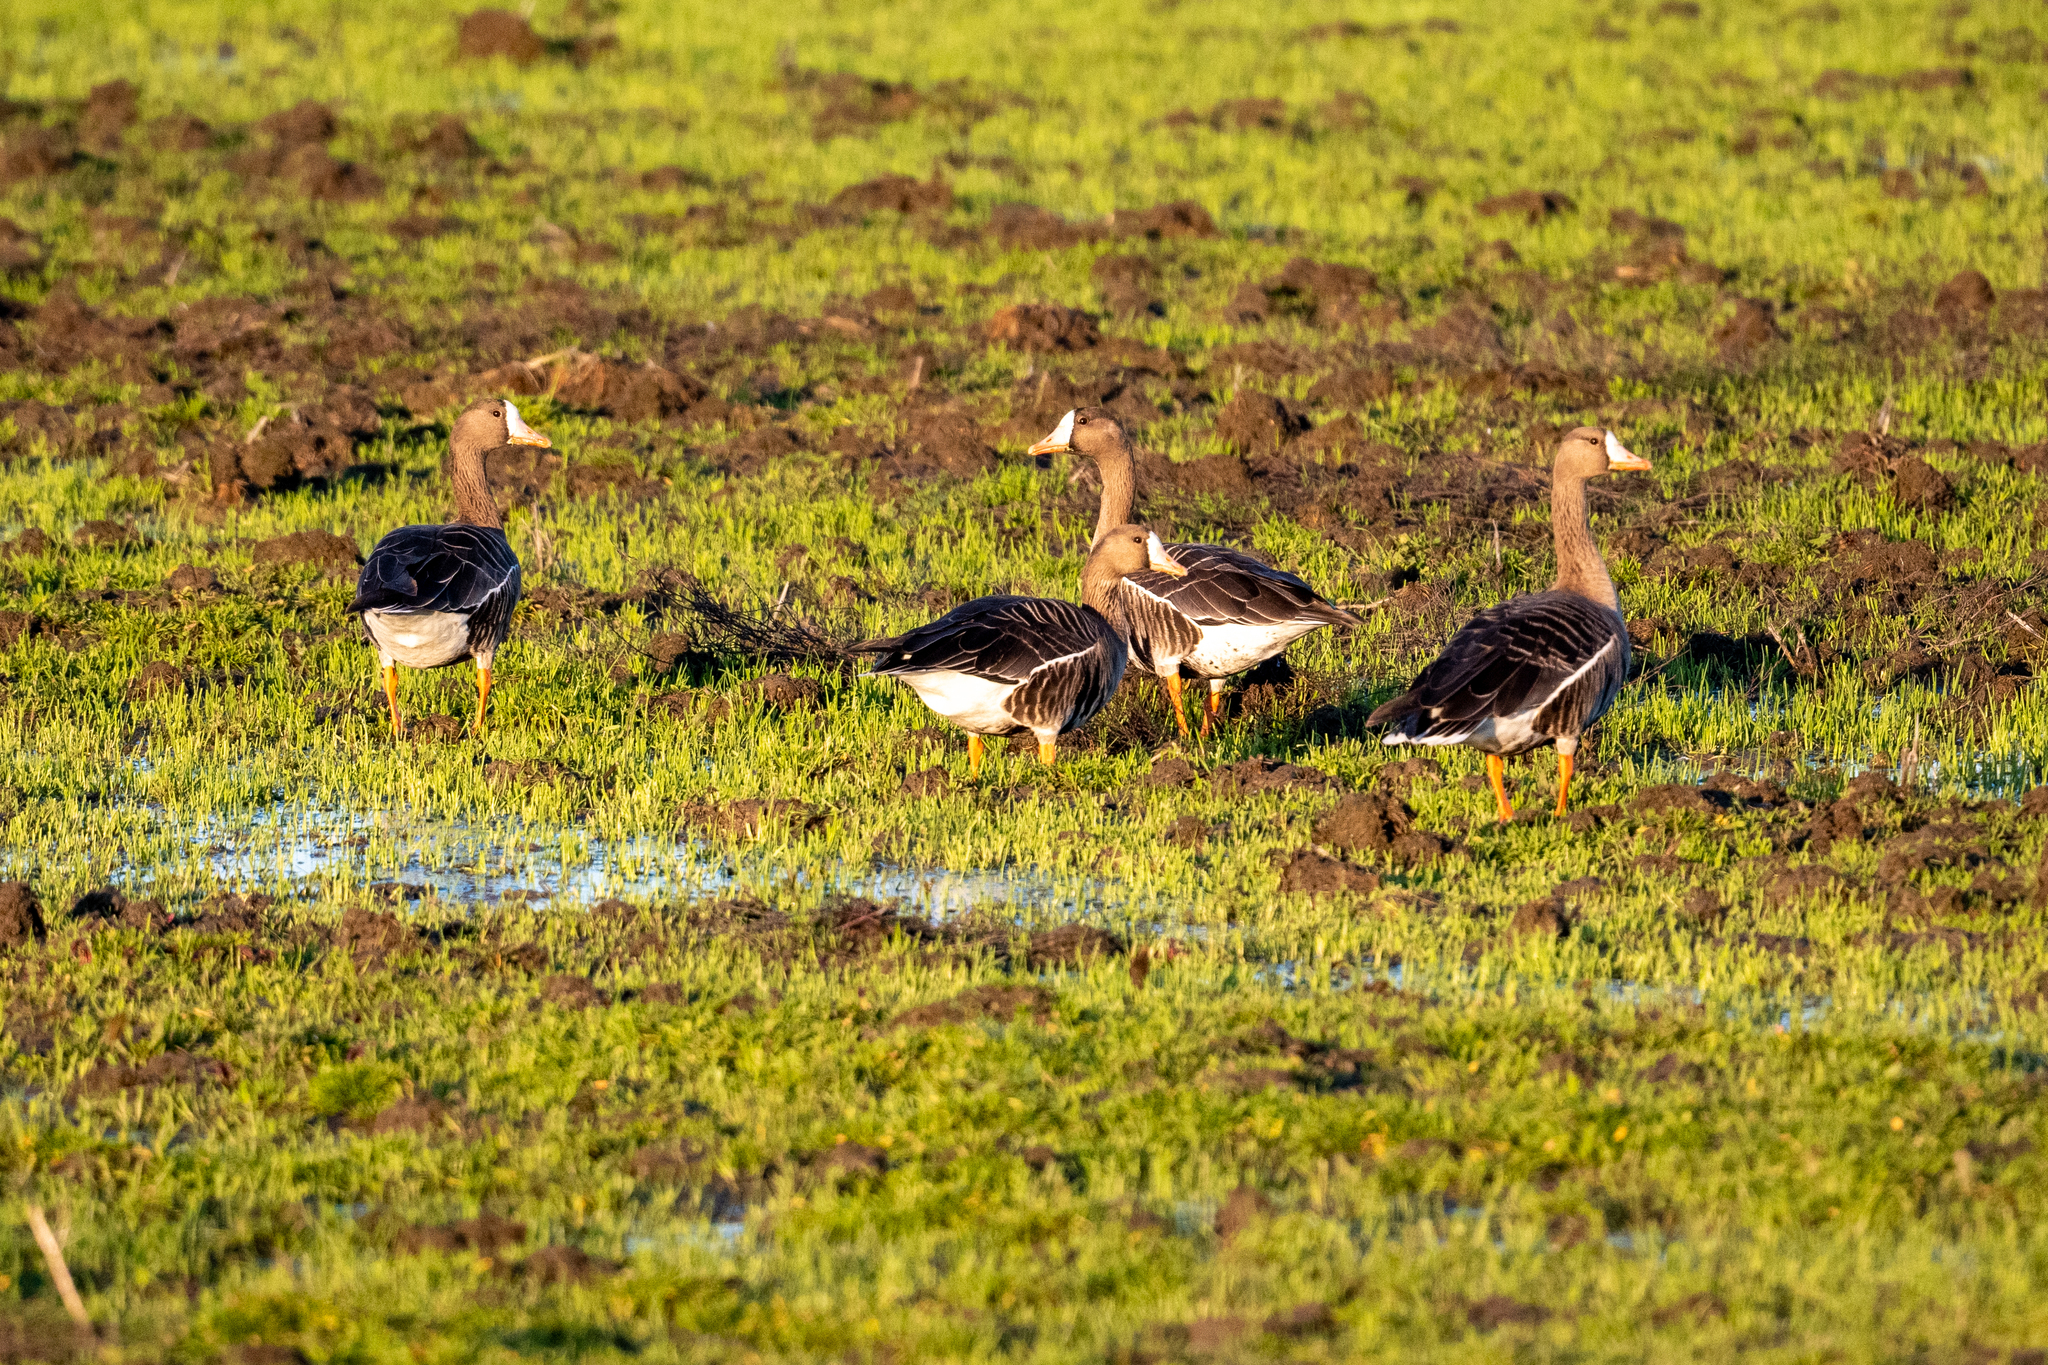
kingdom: Animalia
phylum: Chordata
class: Aves
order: Anseriformes
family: Anatidae
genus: Anser
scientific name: Anser albifrons
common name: Greater white-fronted goose
